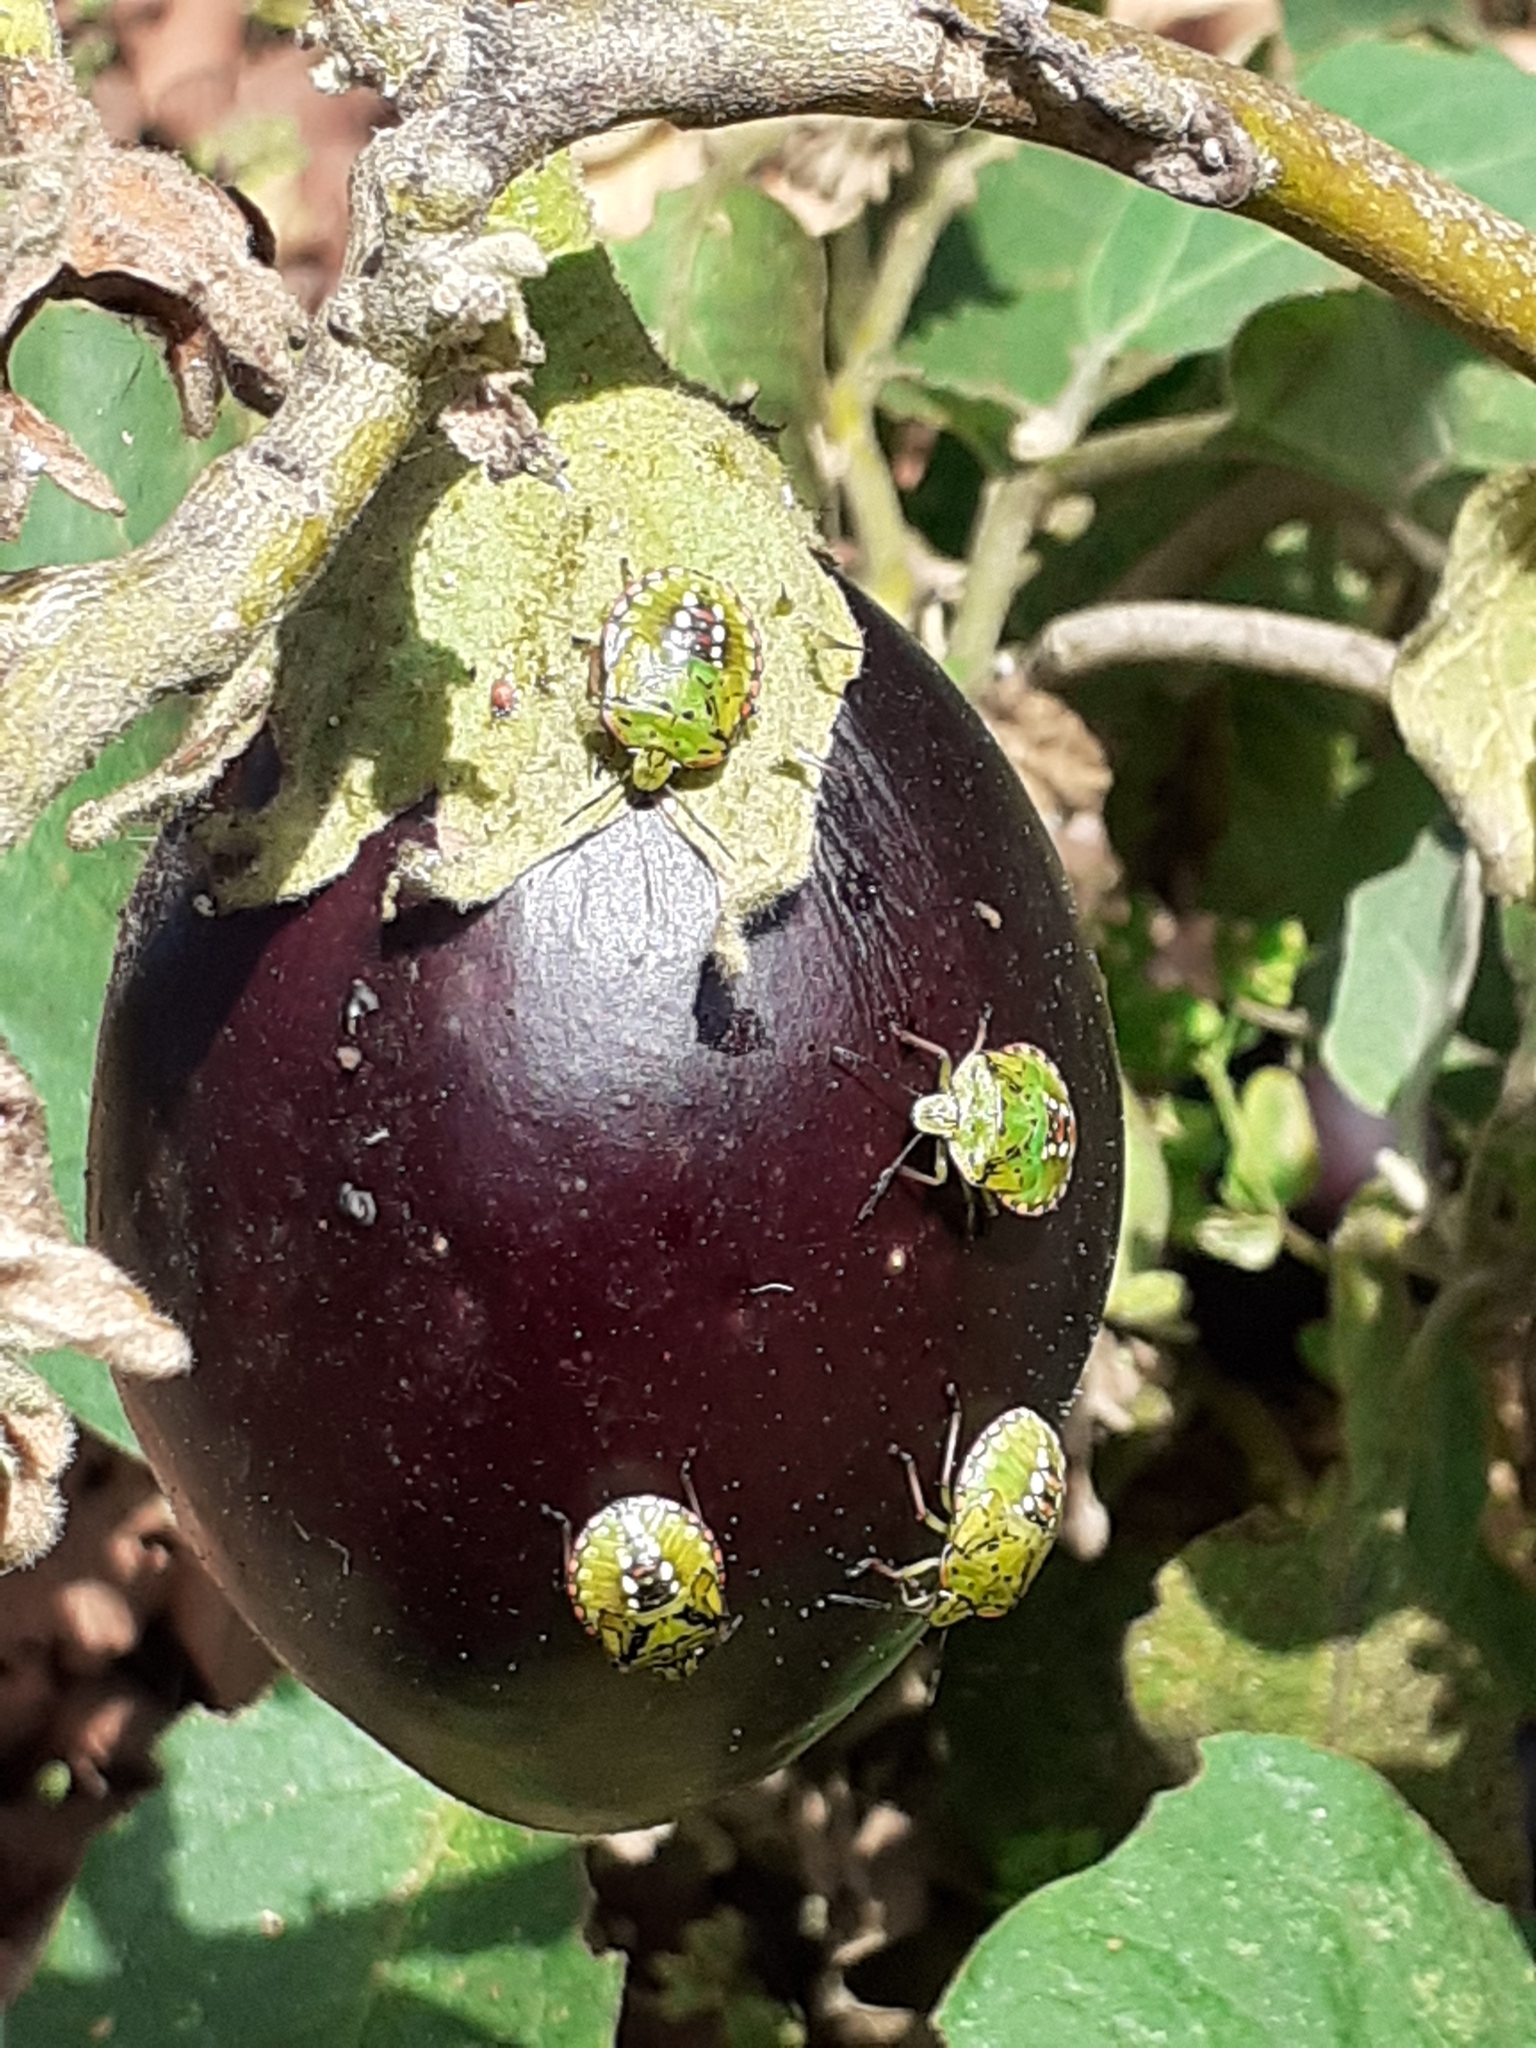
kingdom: Animalia
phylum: Arthropoda
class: Insecta
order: Hemiptera
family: Pentatomidae
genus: Nezara
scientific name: Nezara viridula
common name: Southern green stink bug
